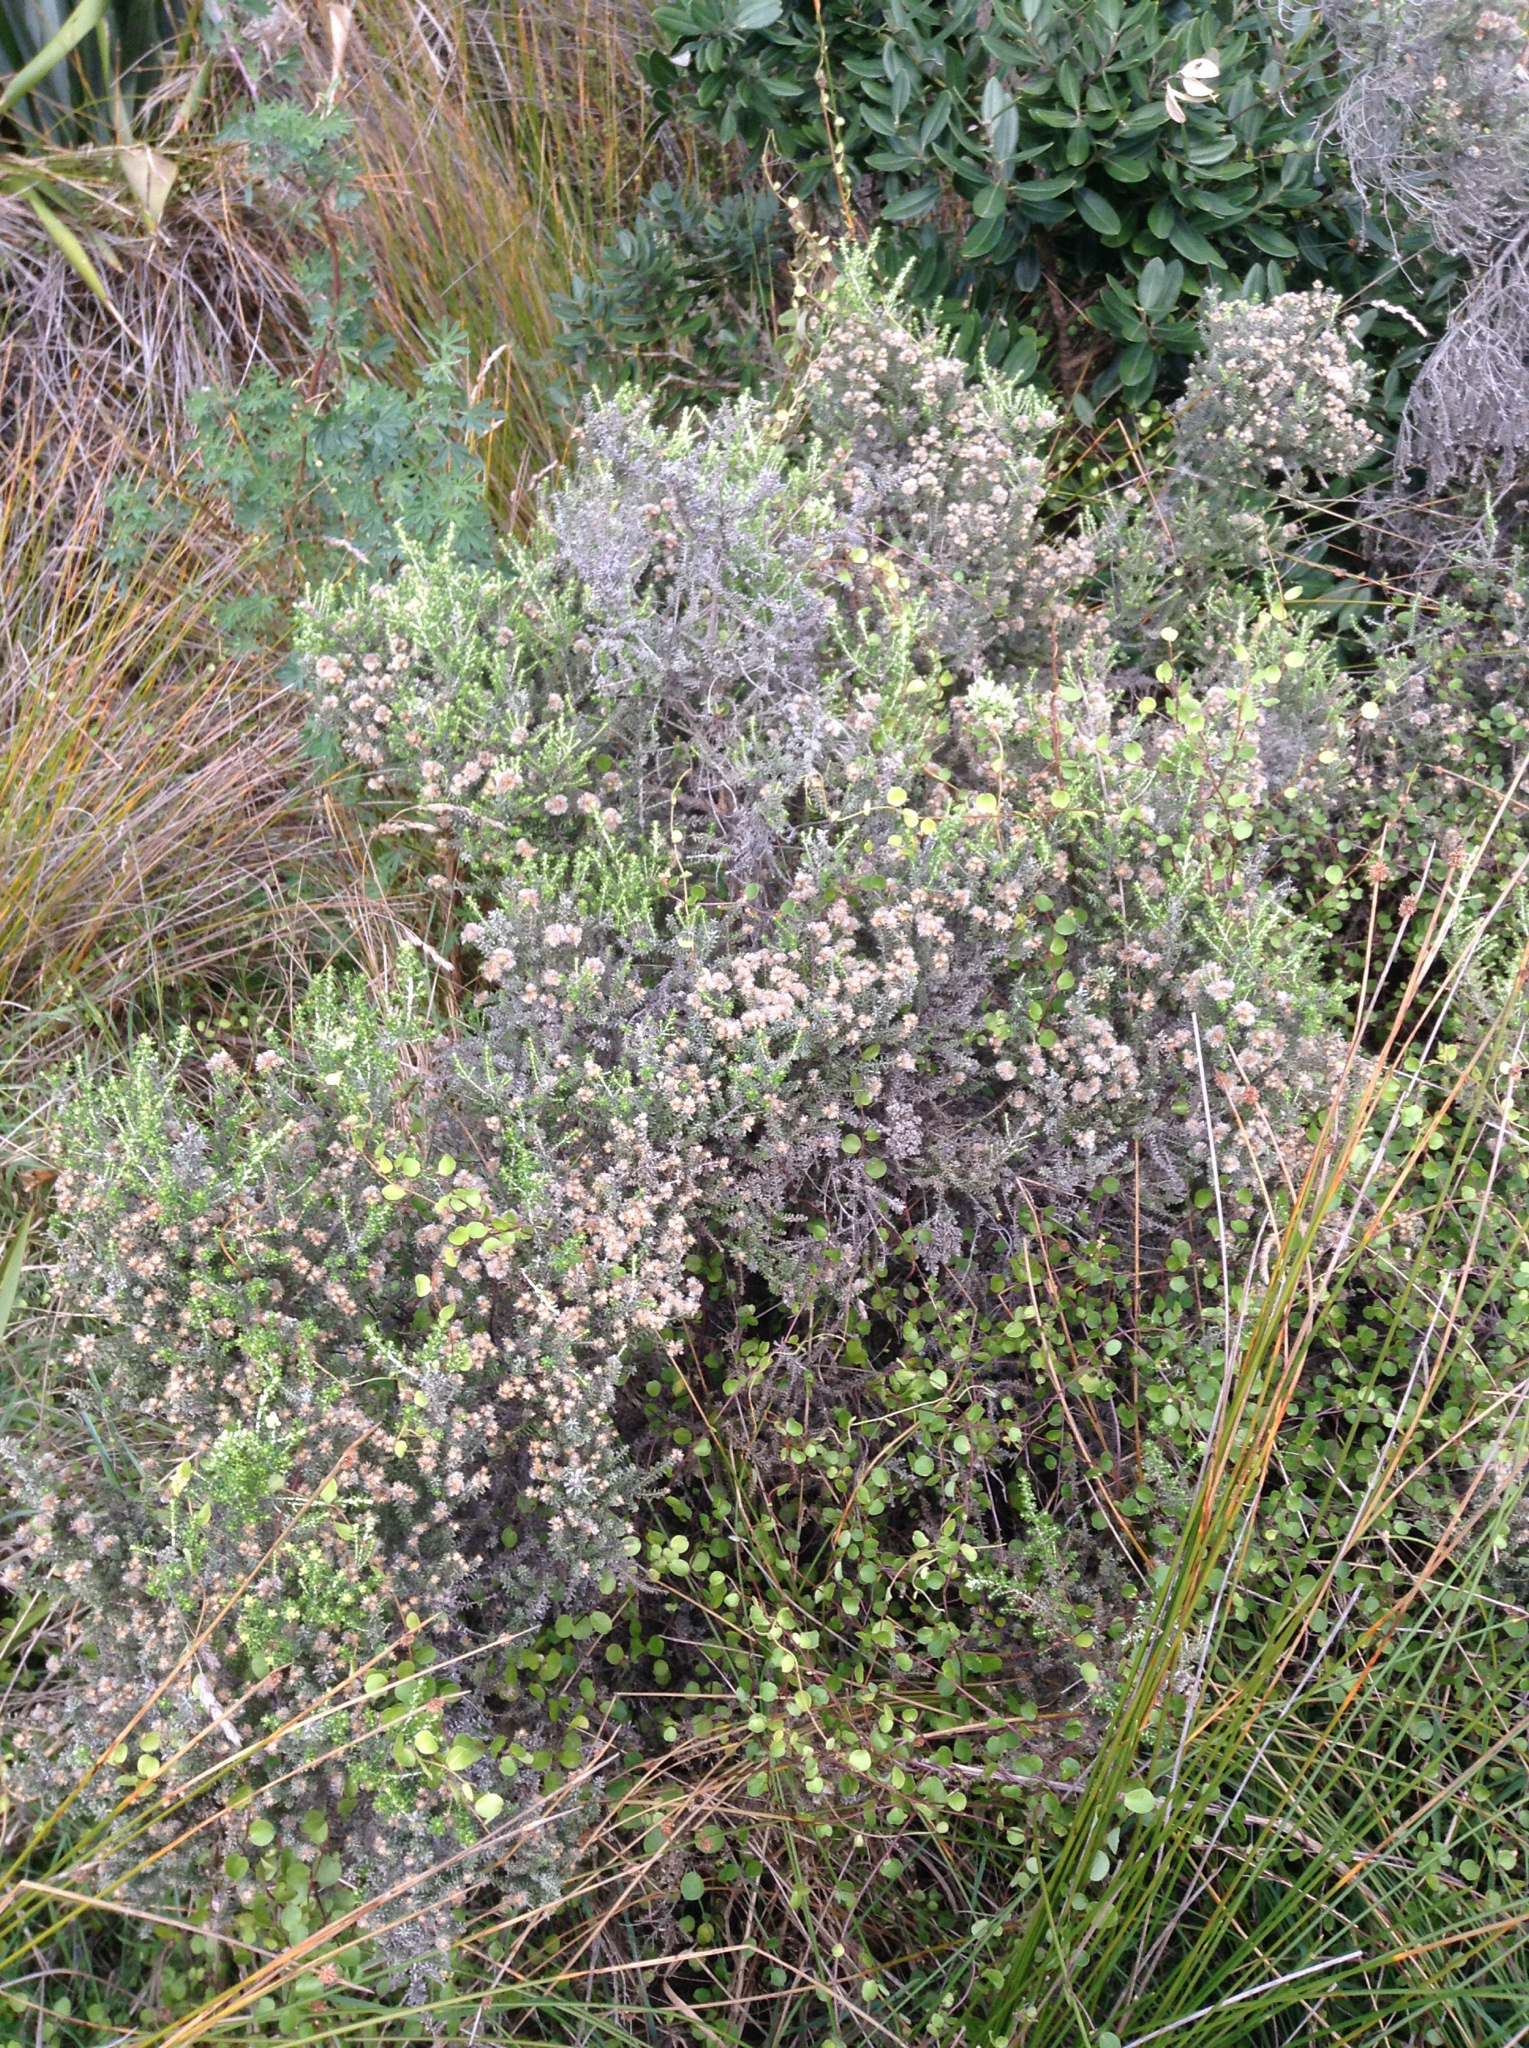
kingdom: Plantae
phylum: Tracheophyta
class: Magnoliopsida
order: Asterales
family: Asteraceae
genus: Ozothamnus
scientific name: Ozothamnus leptophyllus
